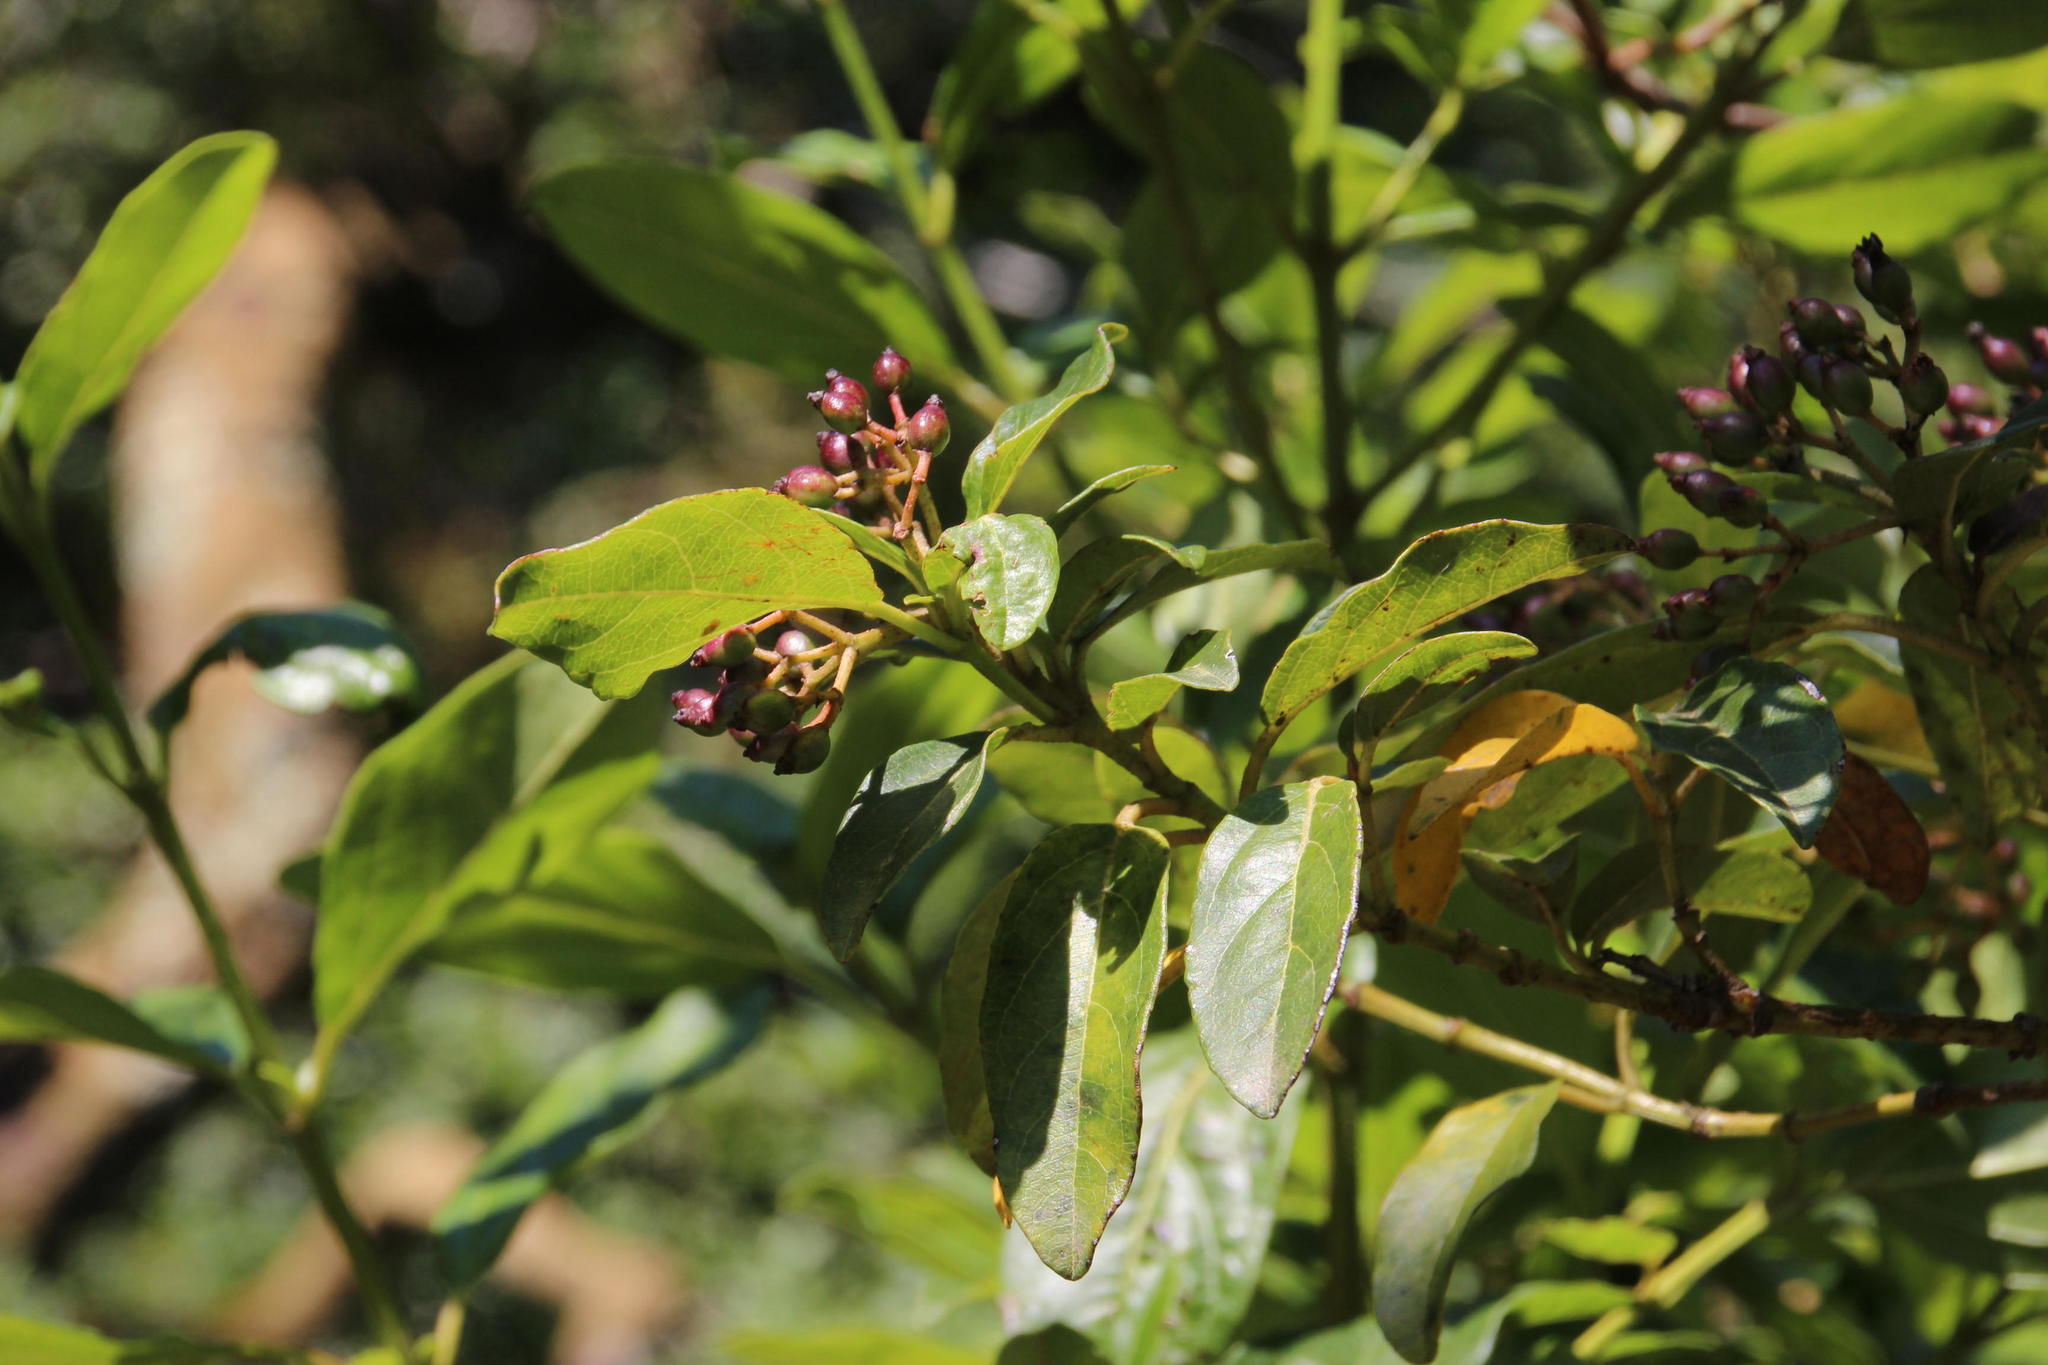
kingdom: Plantae
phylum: Tracheophyta
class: Magnoliopsida
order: Dipsacales
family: Viburnaceae
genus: Viburnum
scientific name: Viburnum tinus
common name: Laurustinus
